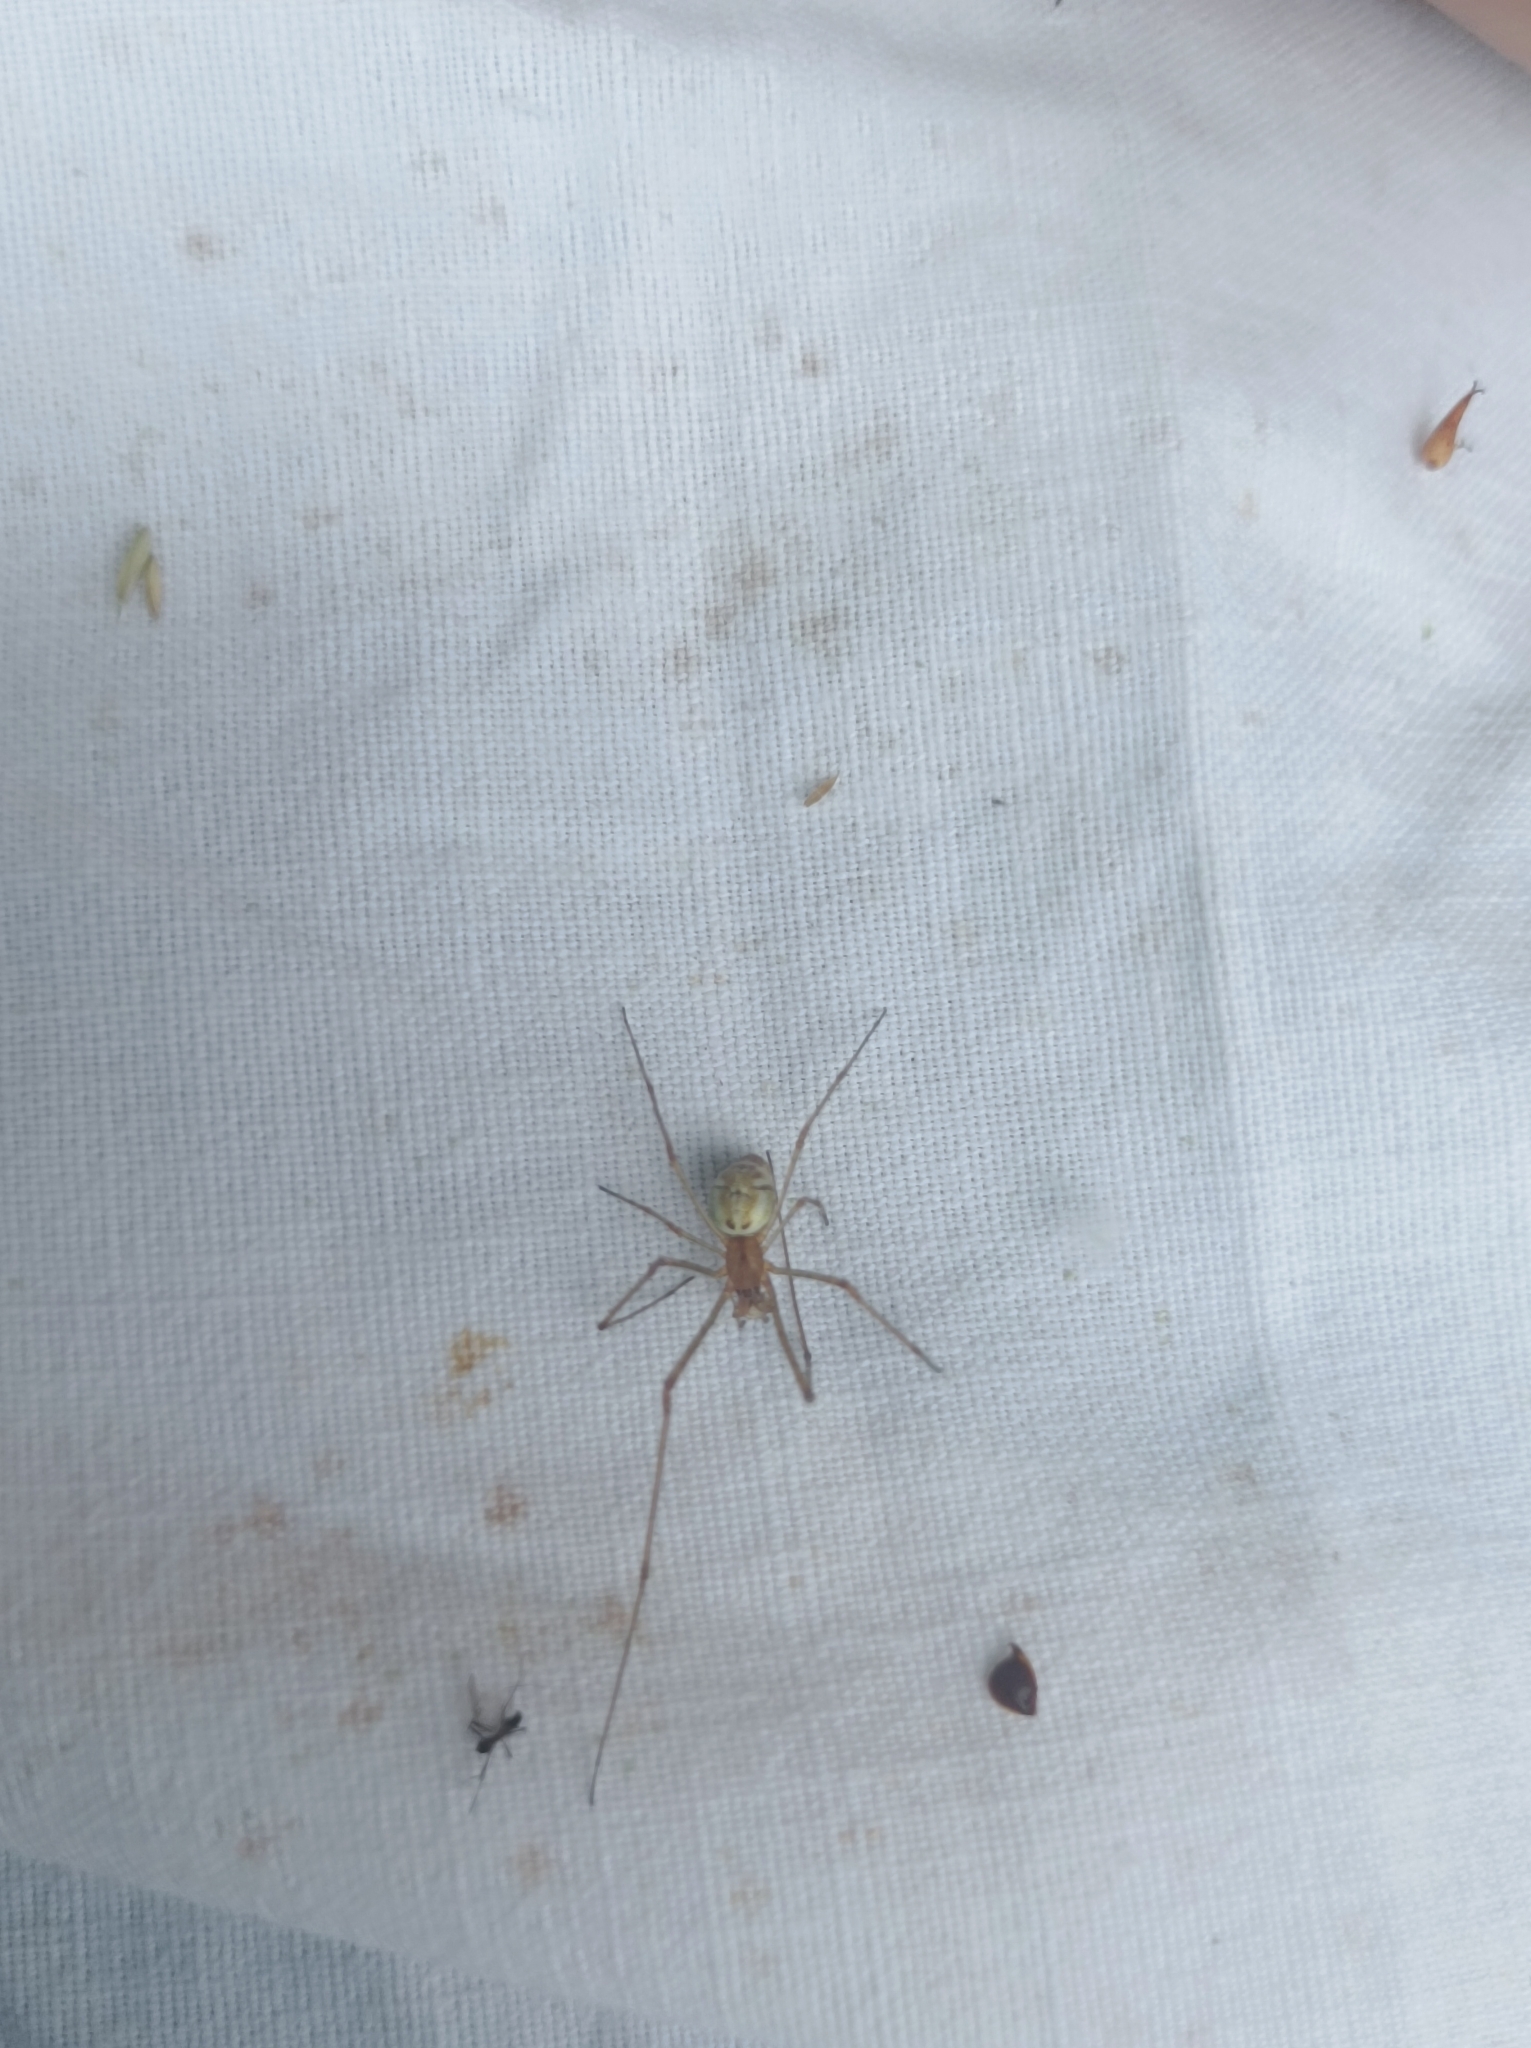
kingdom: Animalia
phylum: Arthropoda
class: Arachnida
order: Araneae
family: Tetragnathidae
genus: Tetragnatha
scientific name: Tetragnatha
